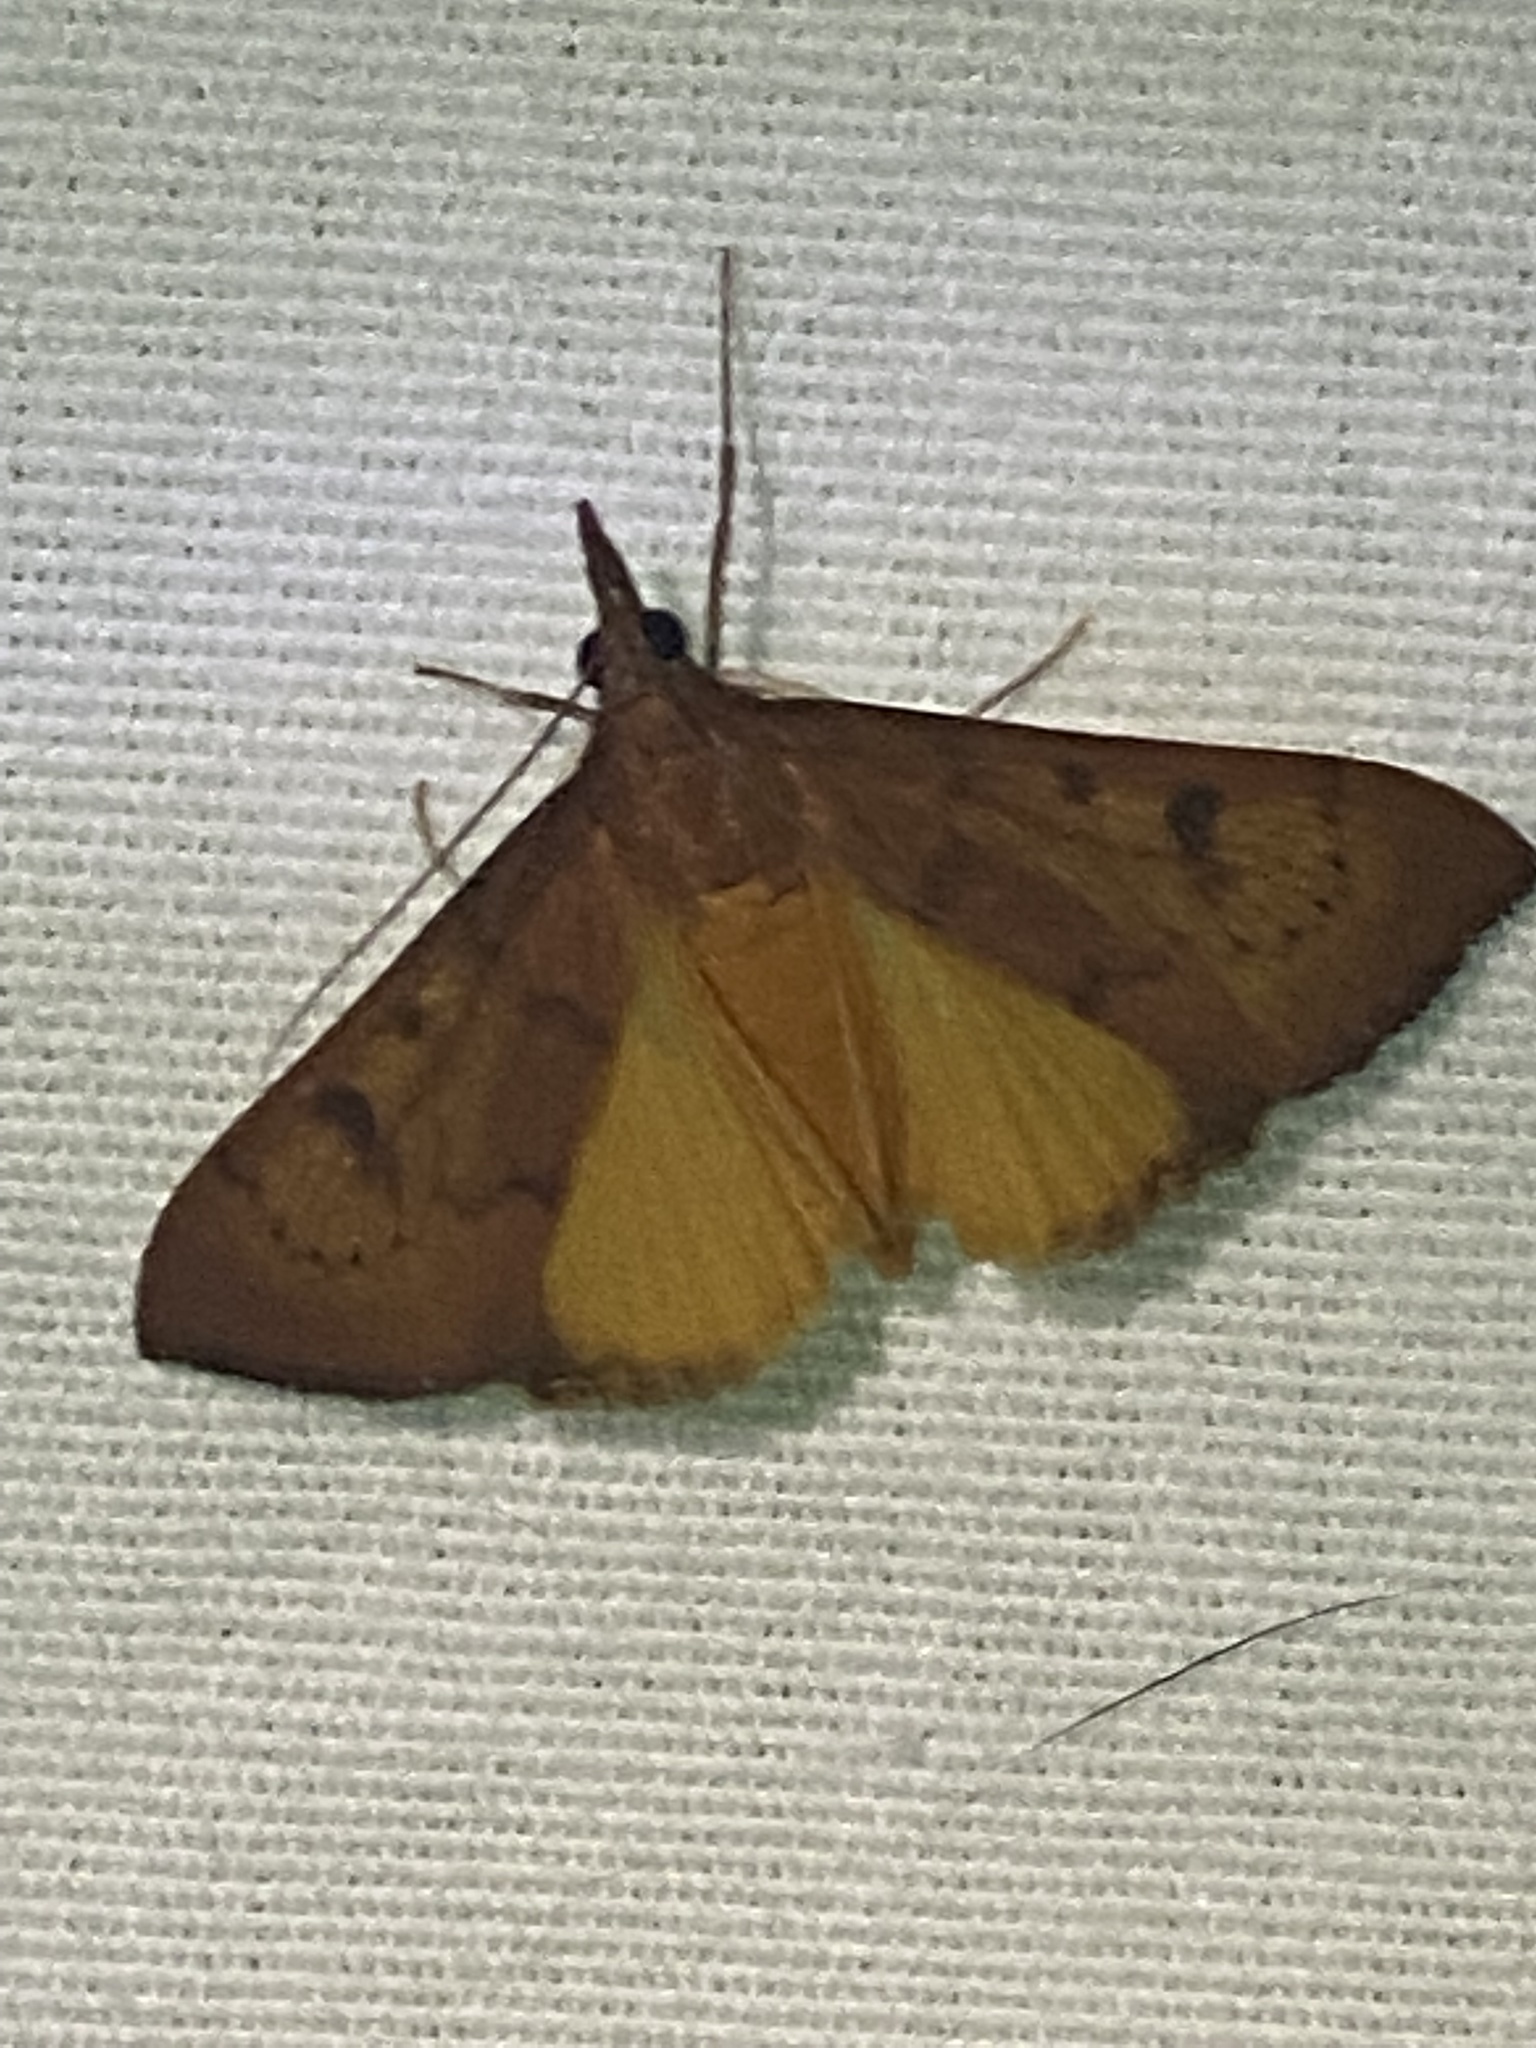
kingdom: Animalia
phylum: Arthropoda
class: Insecta
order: Lepidoptera
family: Crambidae
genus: Uresiphita
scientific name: Uresiphita reversalis
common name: Genista broom moth
